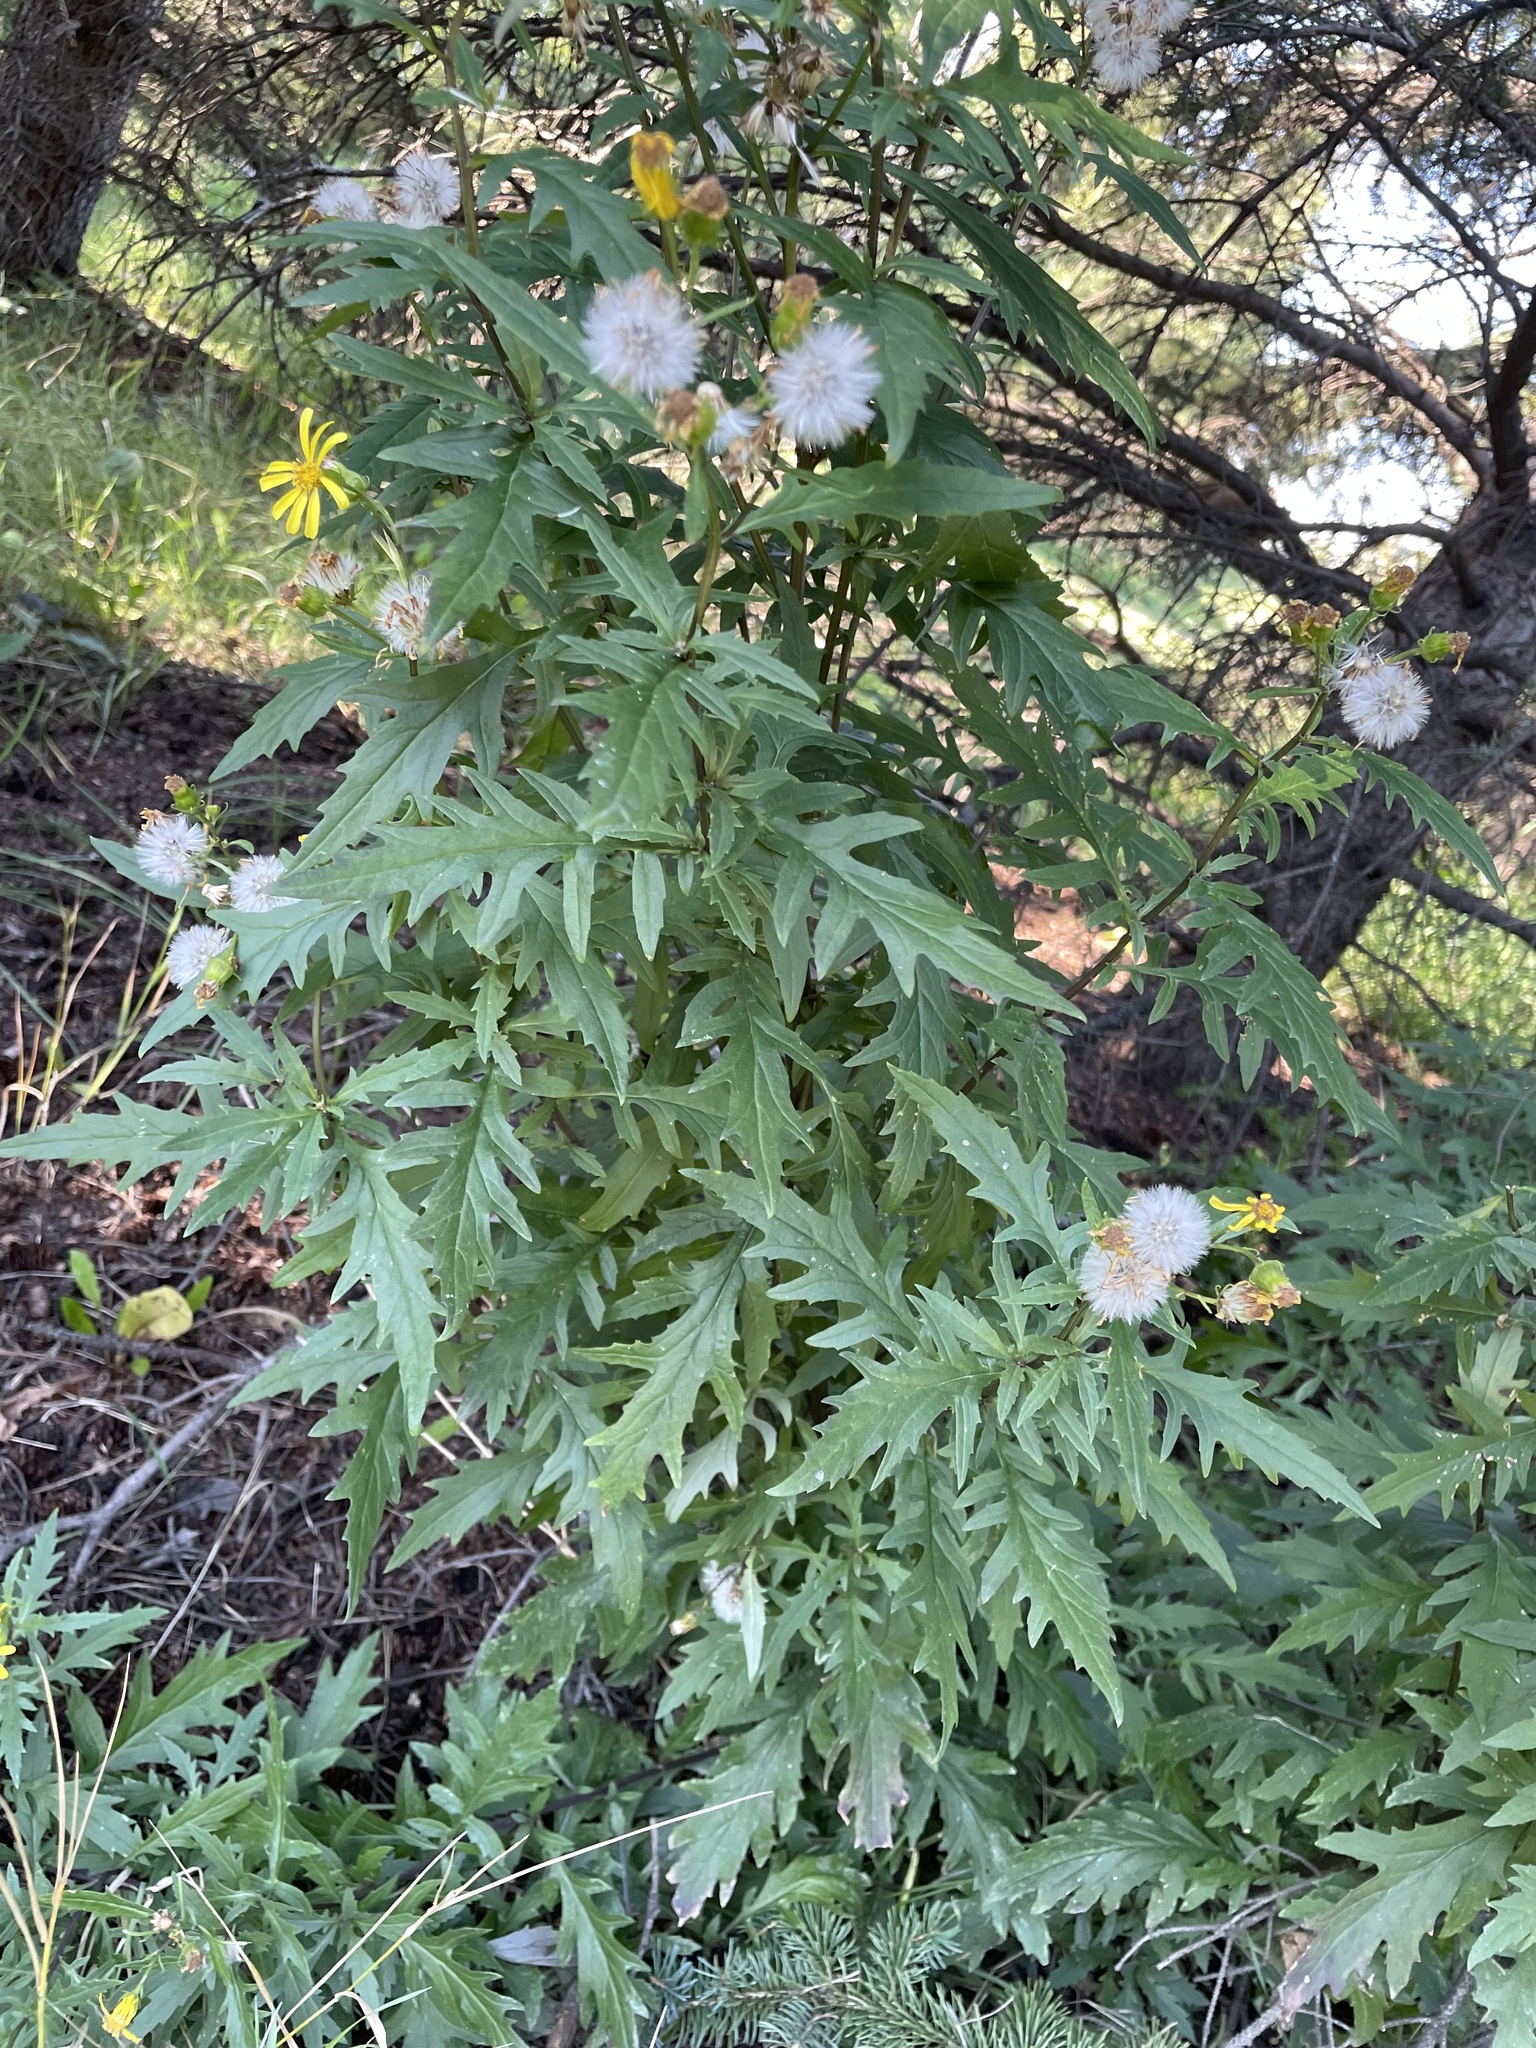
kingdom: Plantae
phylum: Tracheophyta
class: Magnoliopsida
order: Asterales
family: Asteraceae
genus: Senecio
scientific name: Senecio eremophilus
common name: Desert ragwort
